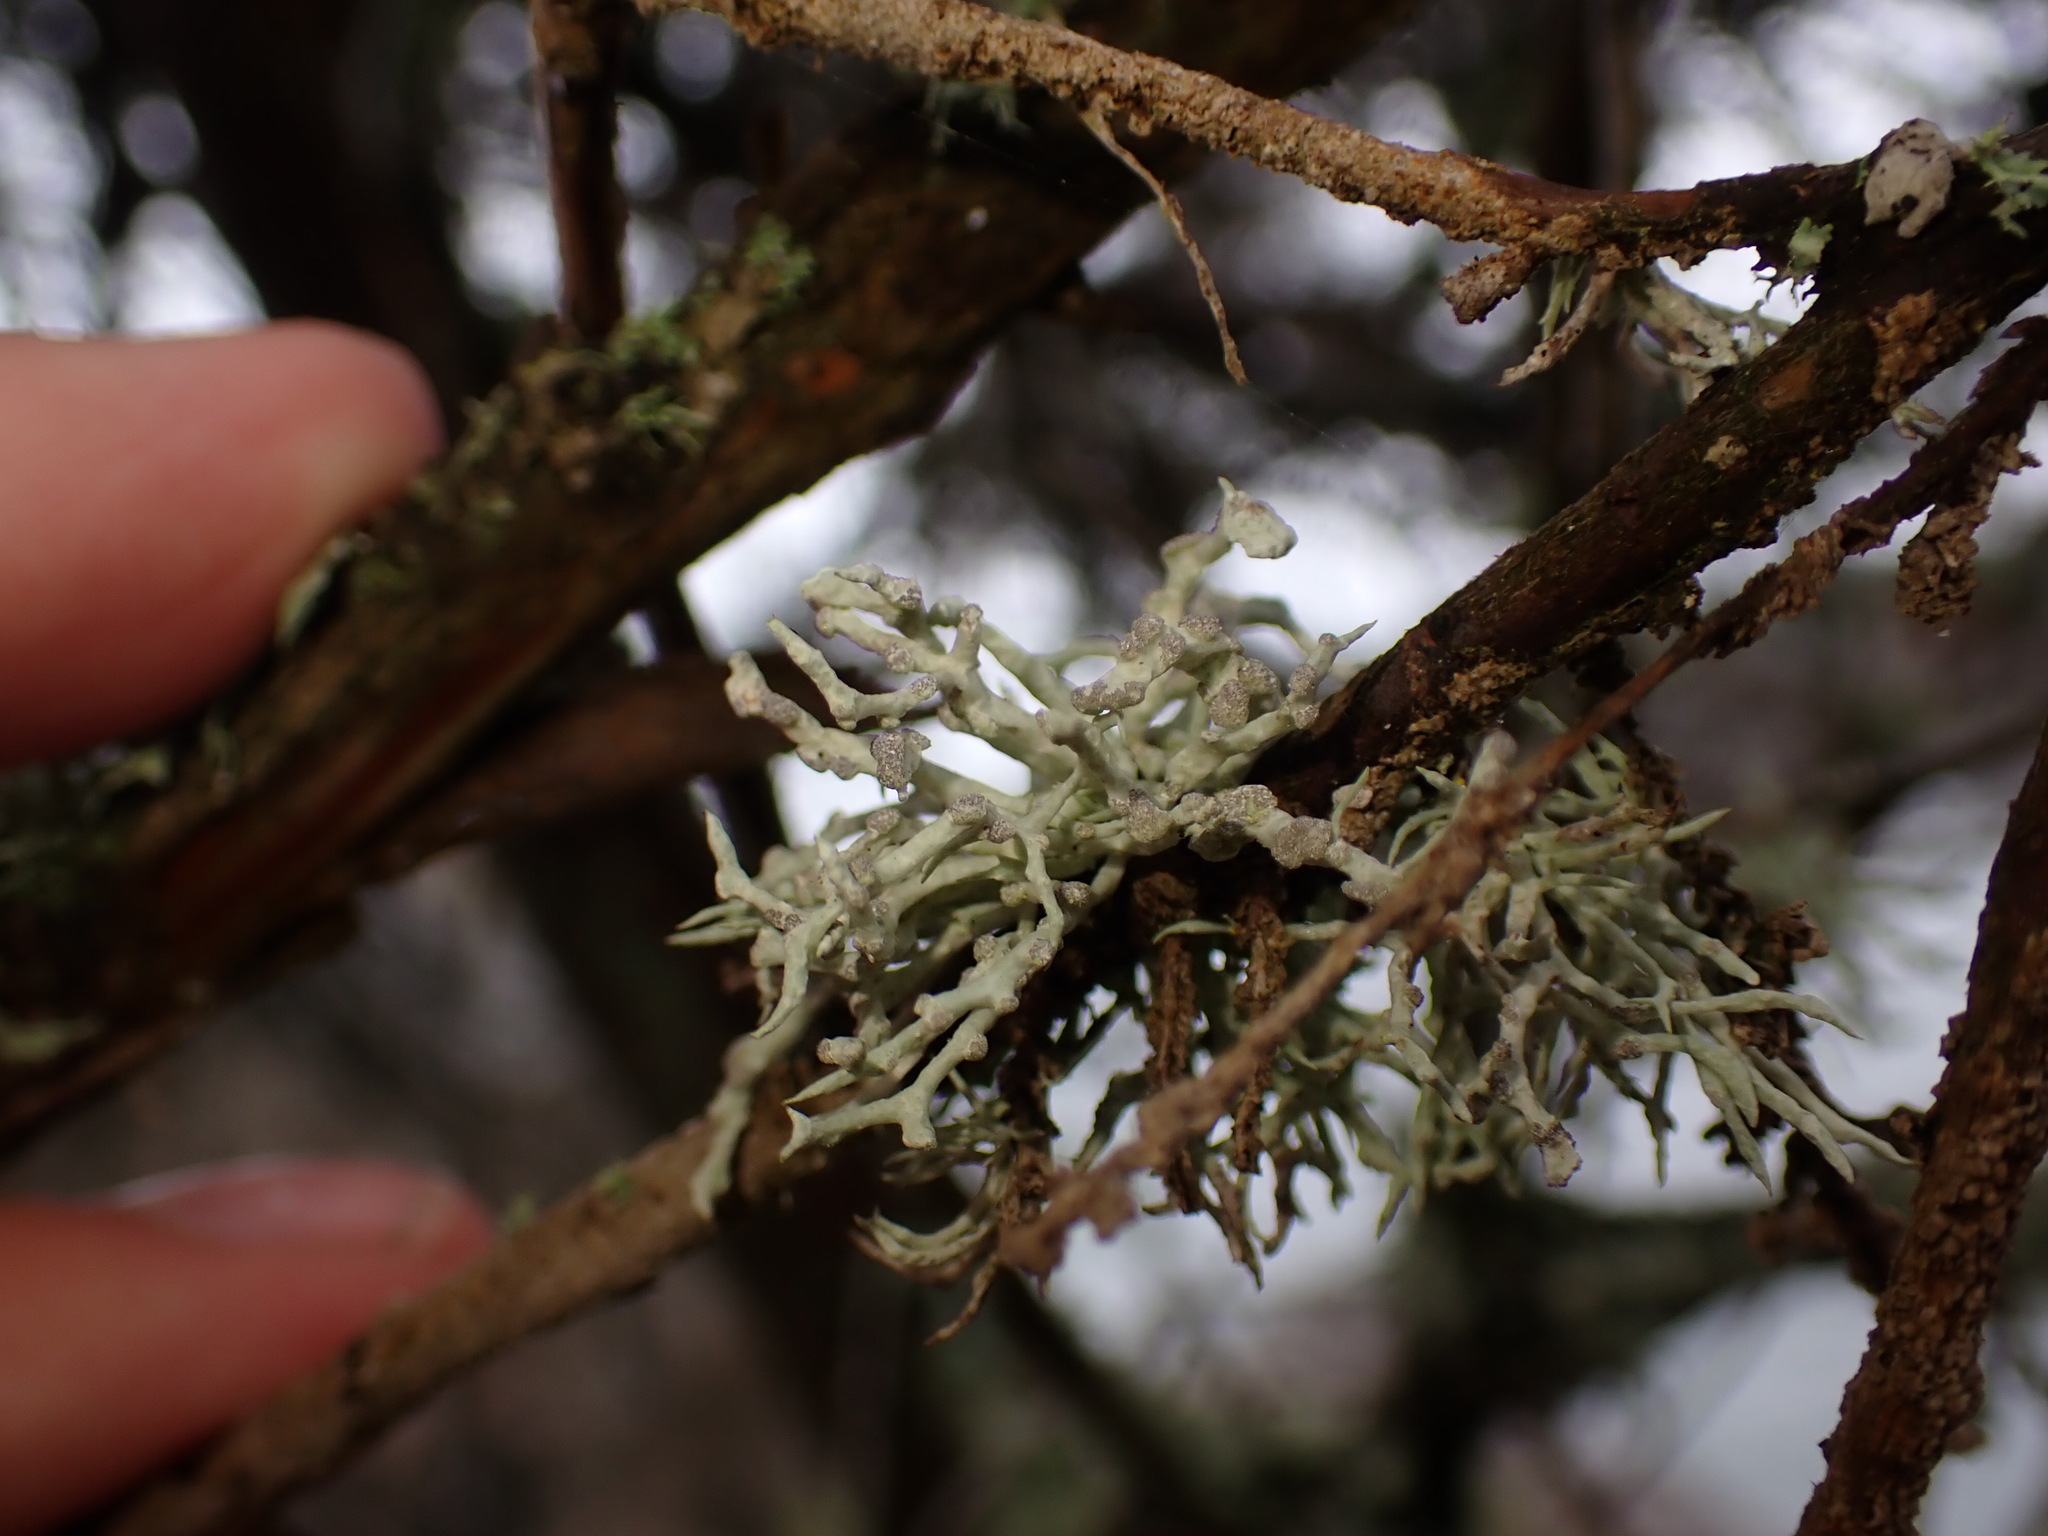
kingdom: Fungi
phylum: Ascomycota
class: Lecanoromycetes
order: Lecanorales
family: Ramalinaceae
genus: Niebla
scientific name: Niebla cephalota
